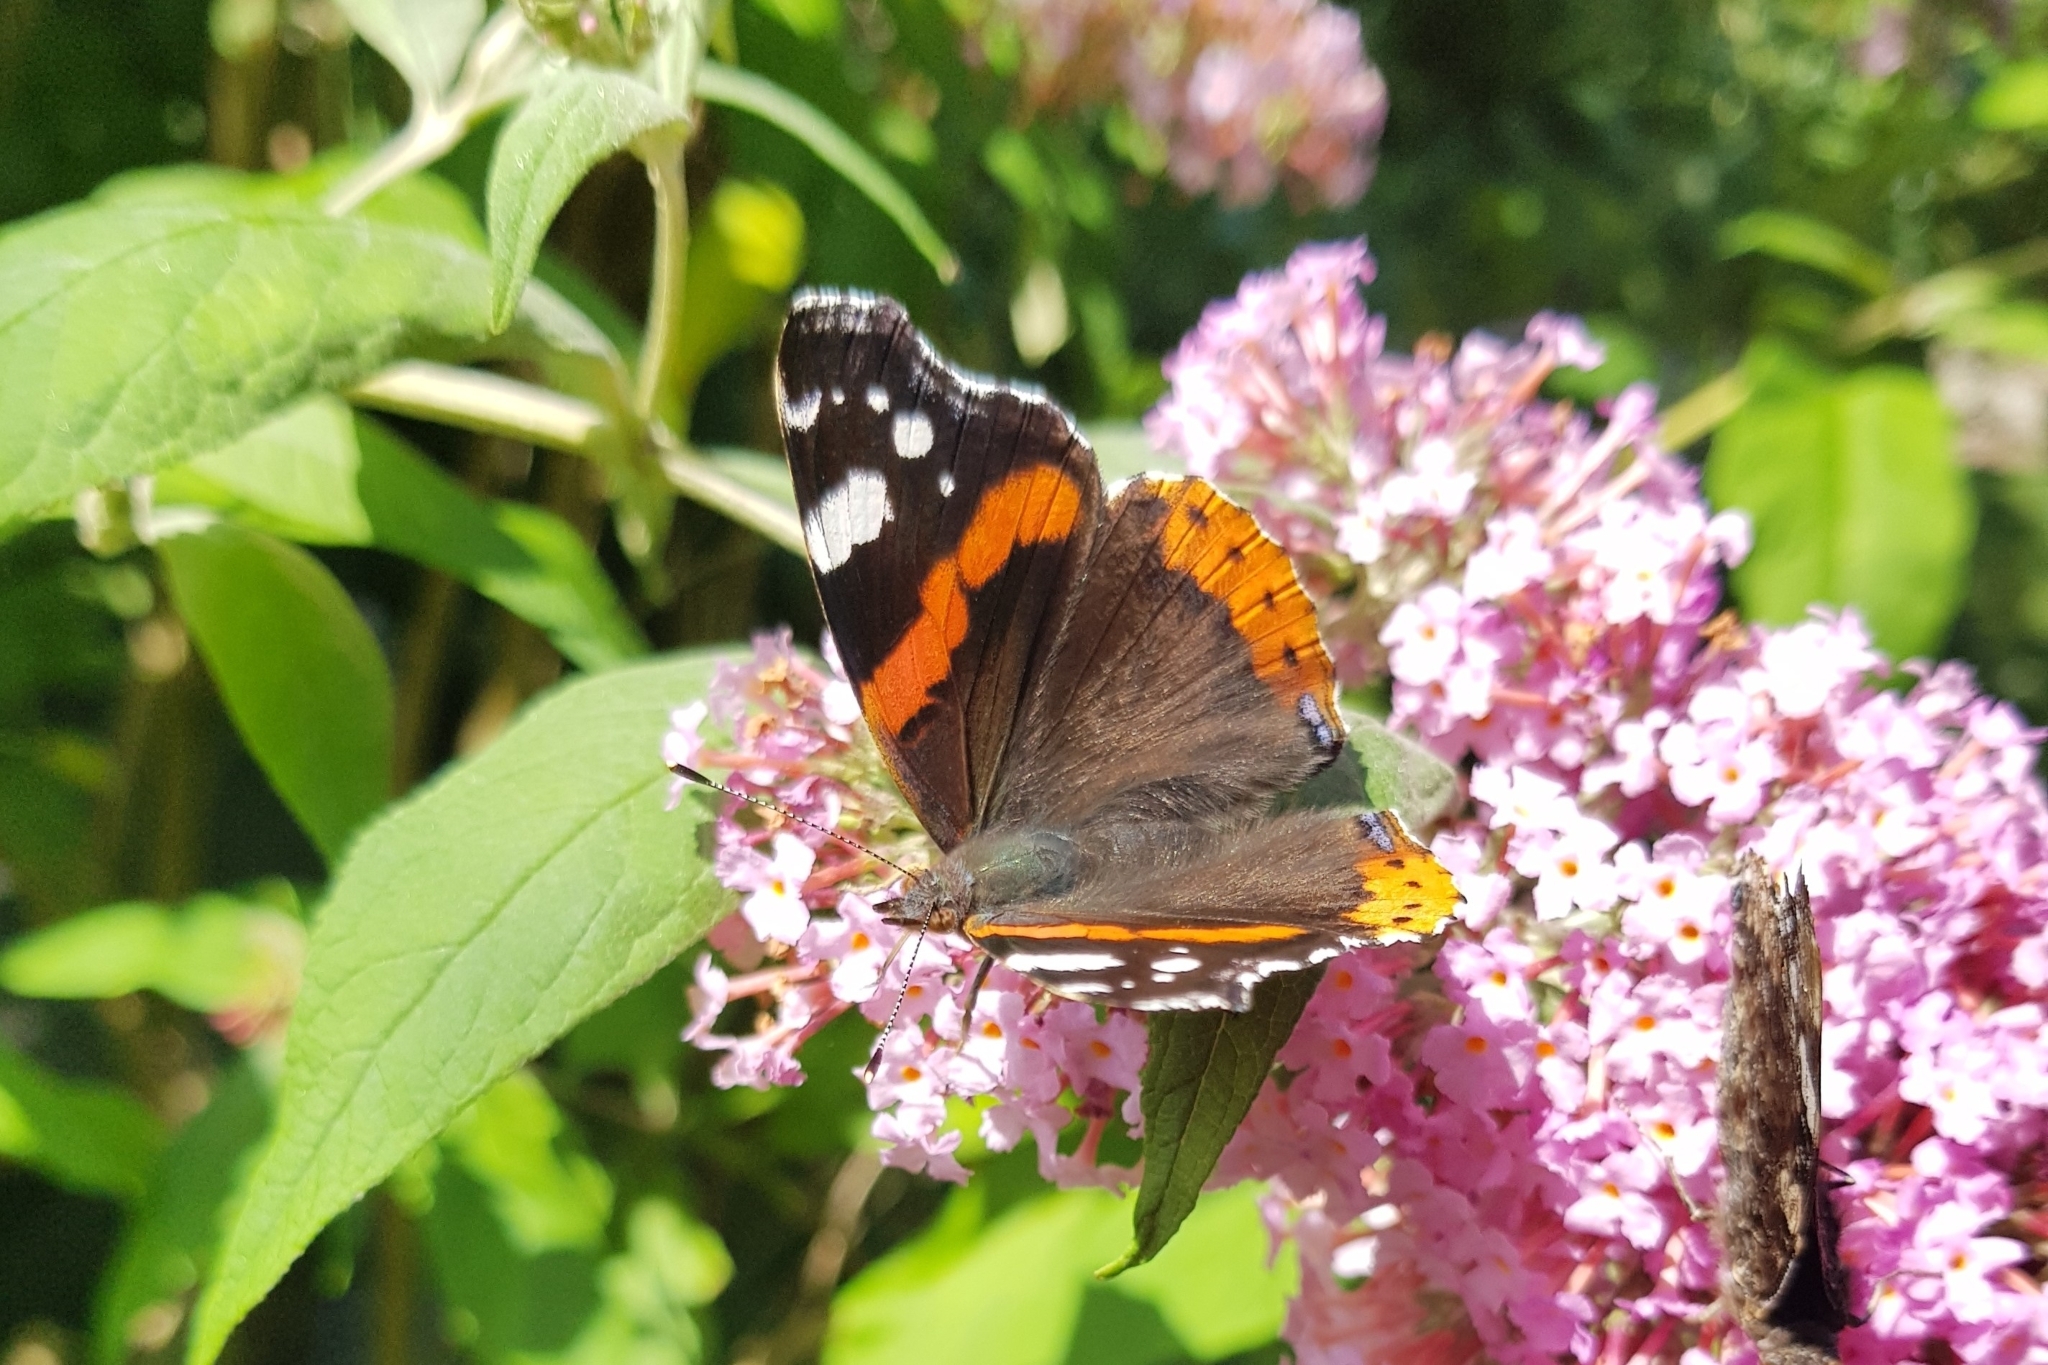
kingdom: Animalia
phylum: Arthropoda
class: Insecta
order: Lepidoptera
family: Nymphalidae
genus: Vanessa
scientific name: Vanessa atalanta
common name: Red admiral
